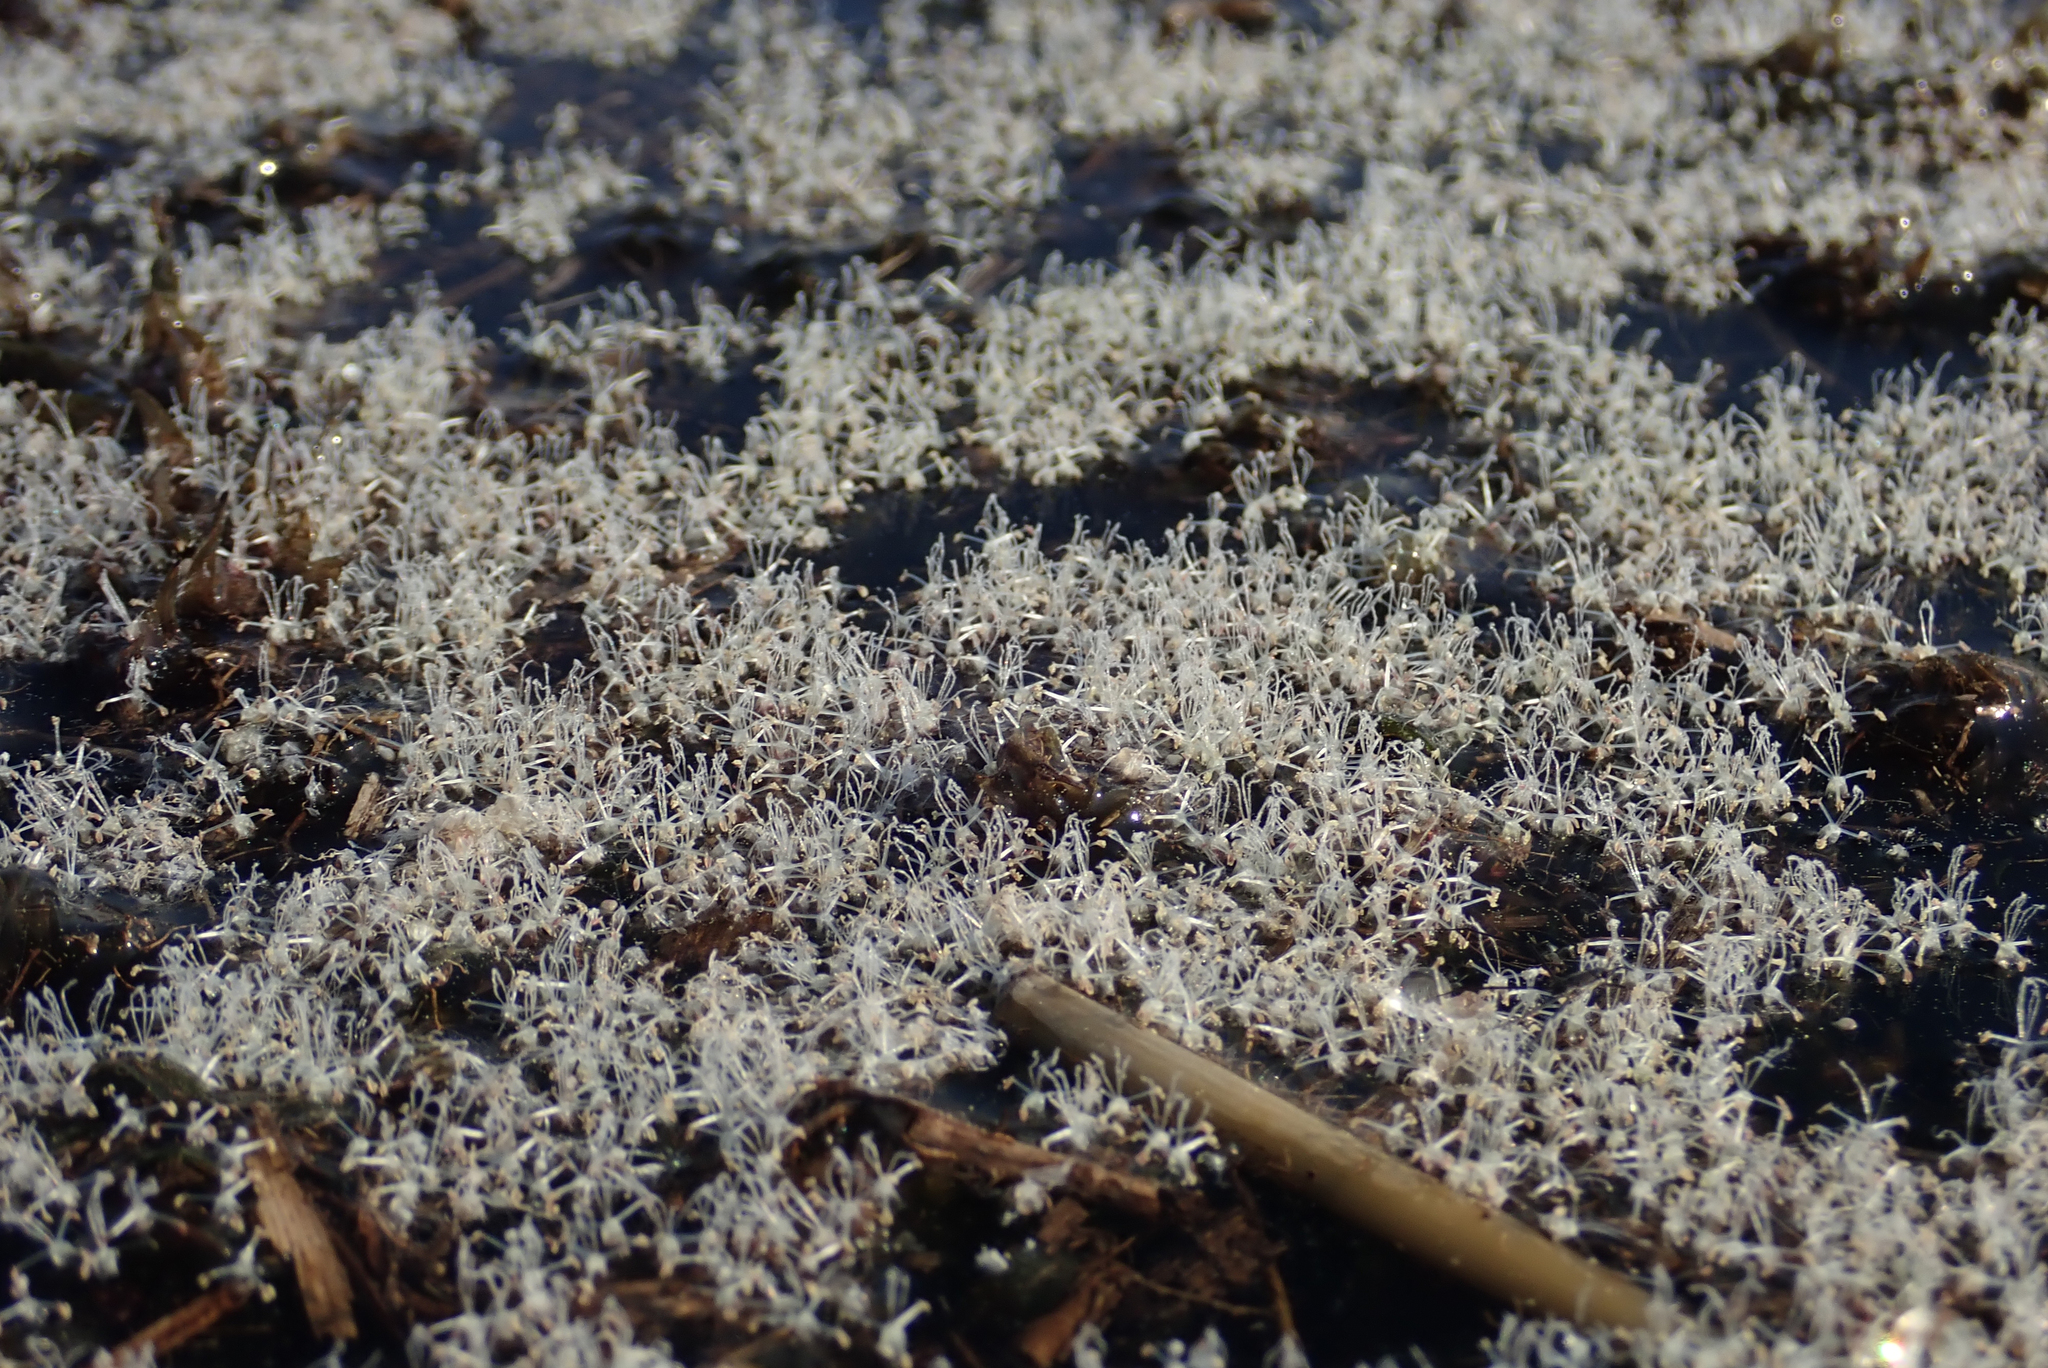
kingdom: Plantae
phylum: Tracheophyta
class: Liliopsida
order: Alismatales
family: Hydrocharitaceae
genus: Lagarosiphon
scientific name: Lagarosiphon major
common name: Curly waterweed
